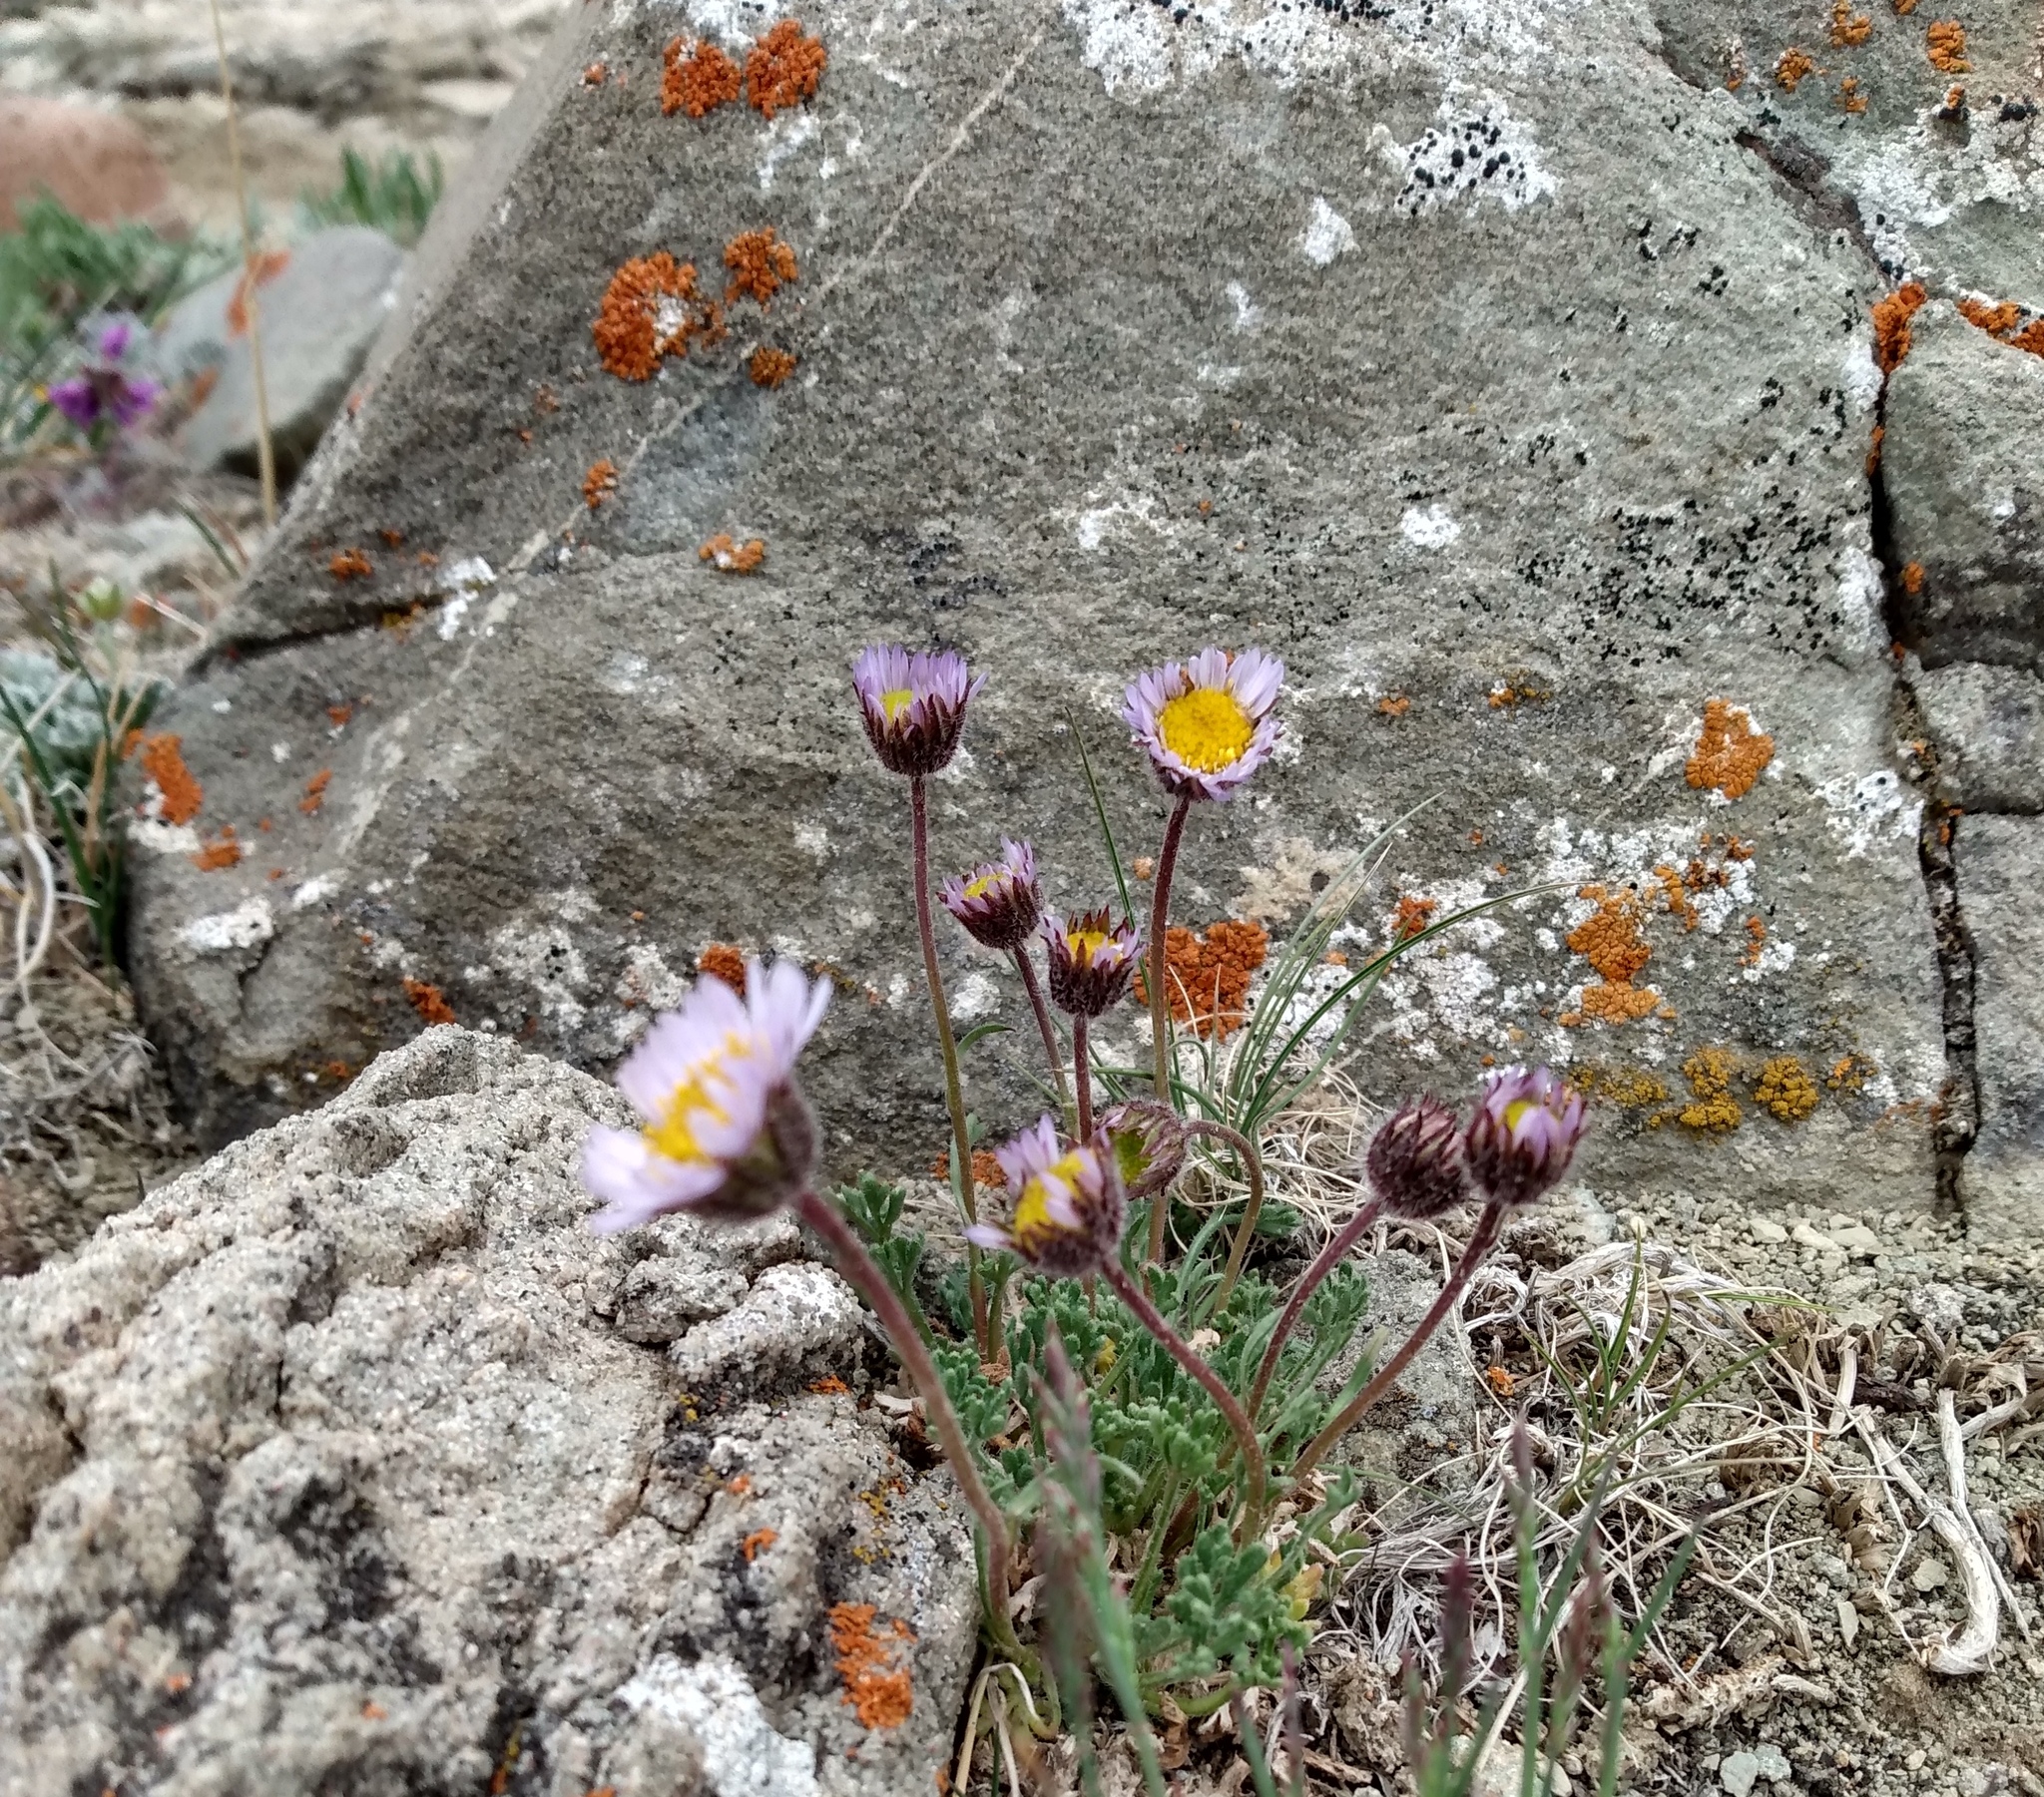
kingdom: Plantae
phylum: Tracheophyta
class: Magnoliopsida
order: Asterales
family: Asteraceae
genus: Erigeron
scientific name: Erigeron compositus
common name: Dwarf mountain fleabane
